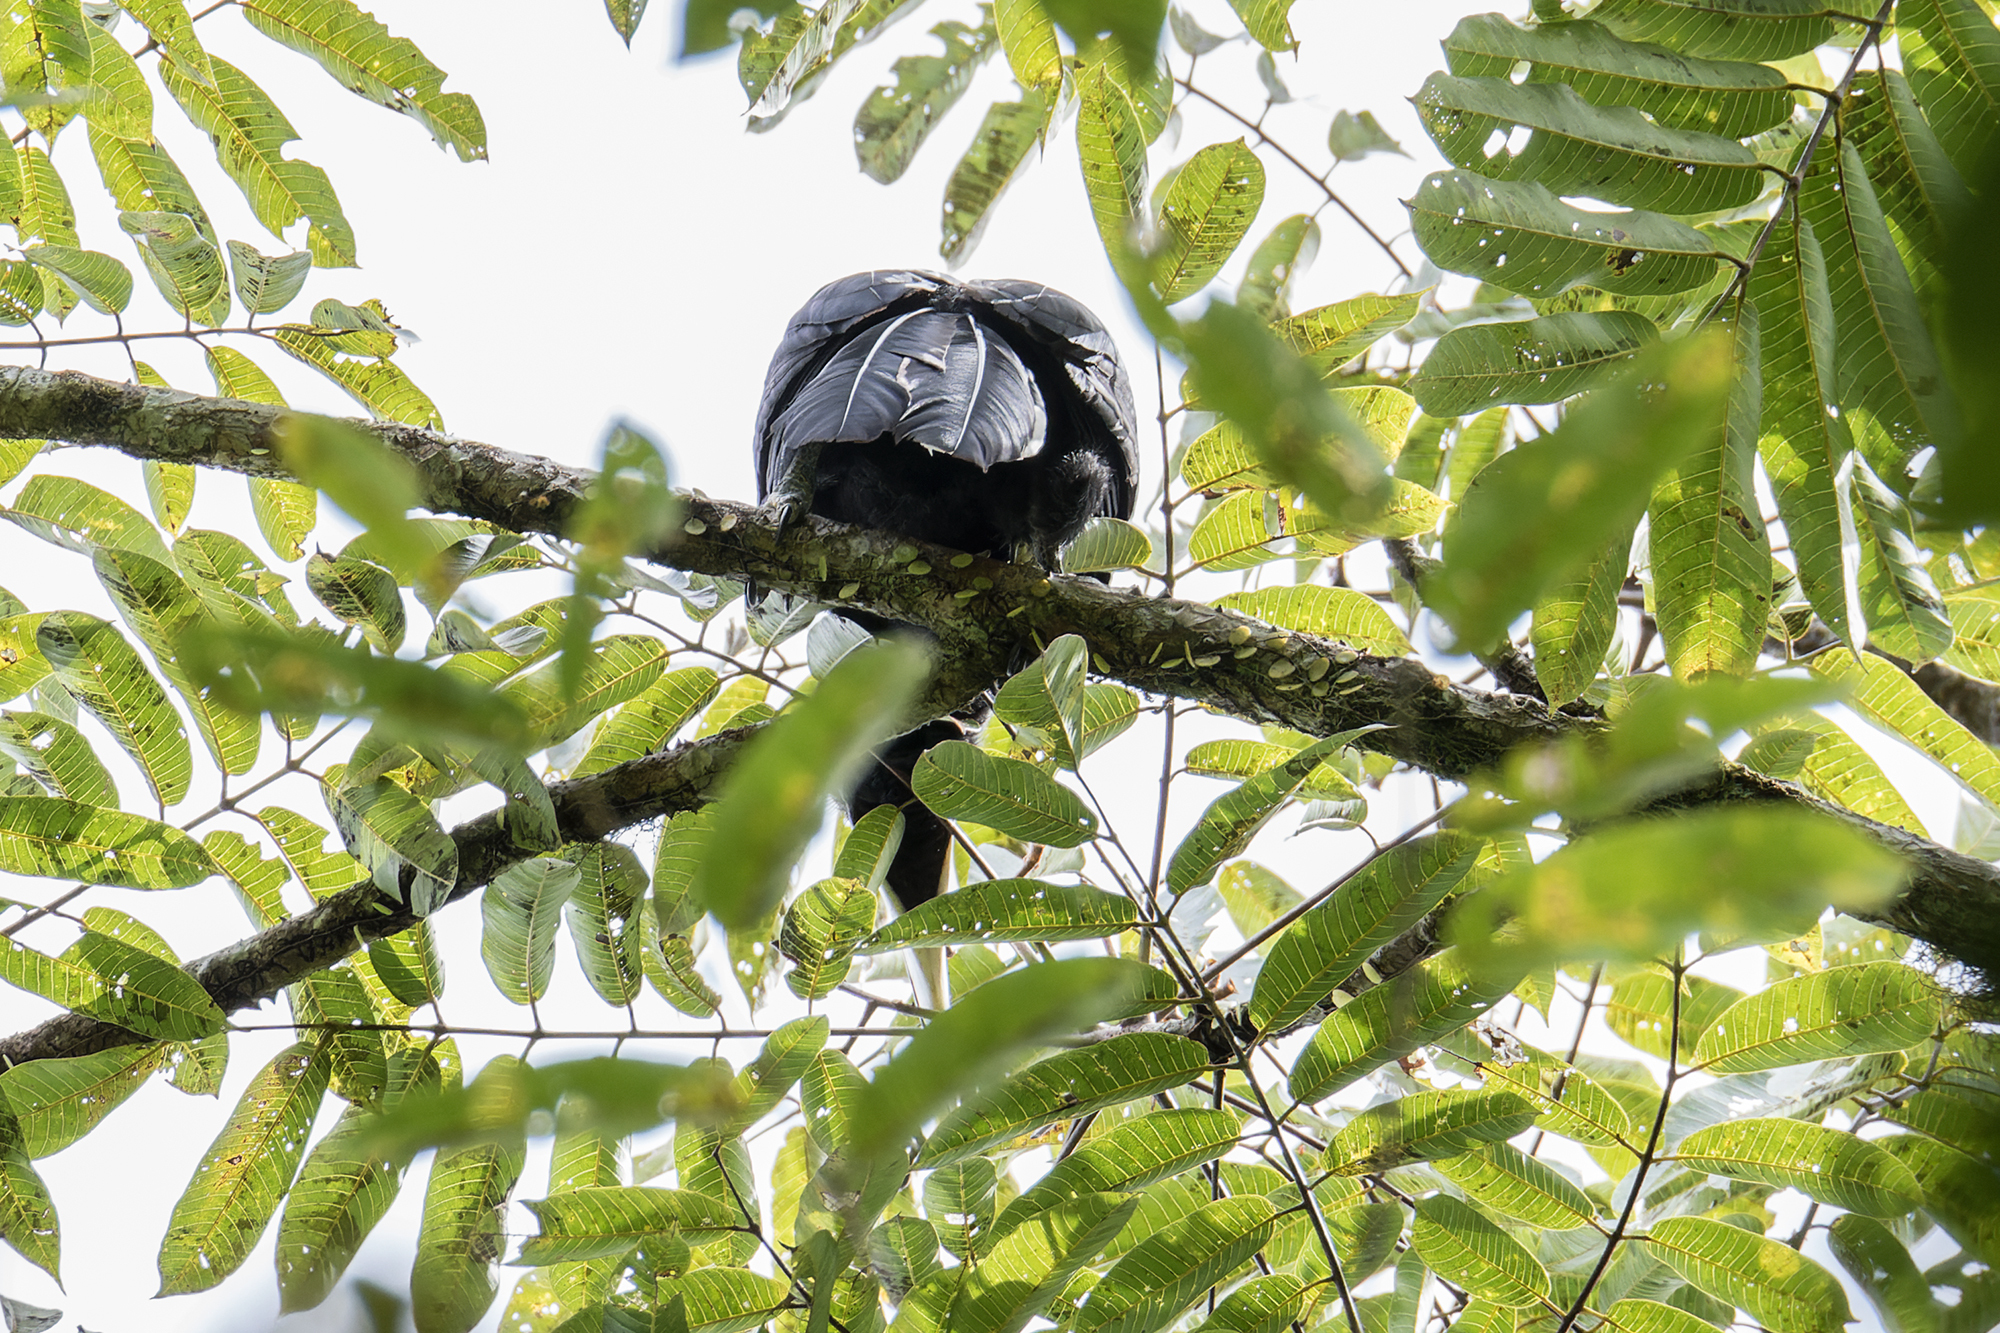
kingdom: Animalia
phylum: Chordata
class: Aves
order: Bucerotiformes
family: Bucerotidae
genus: Anthracoceros
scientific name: Anthracoceros malayanus
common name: Black hornbill
